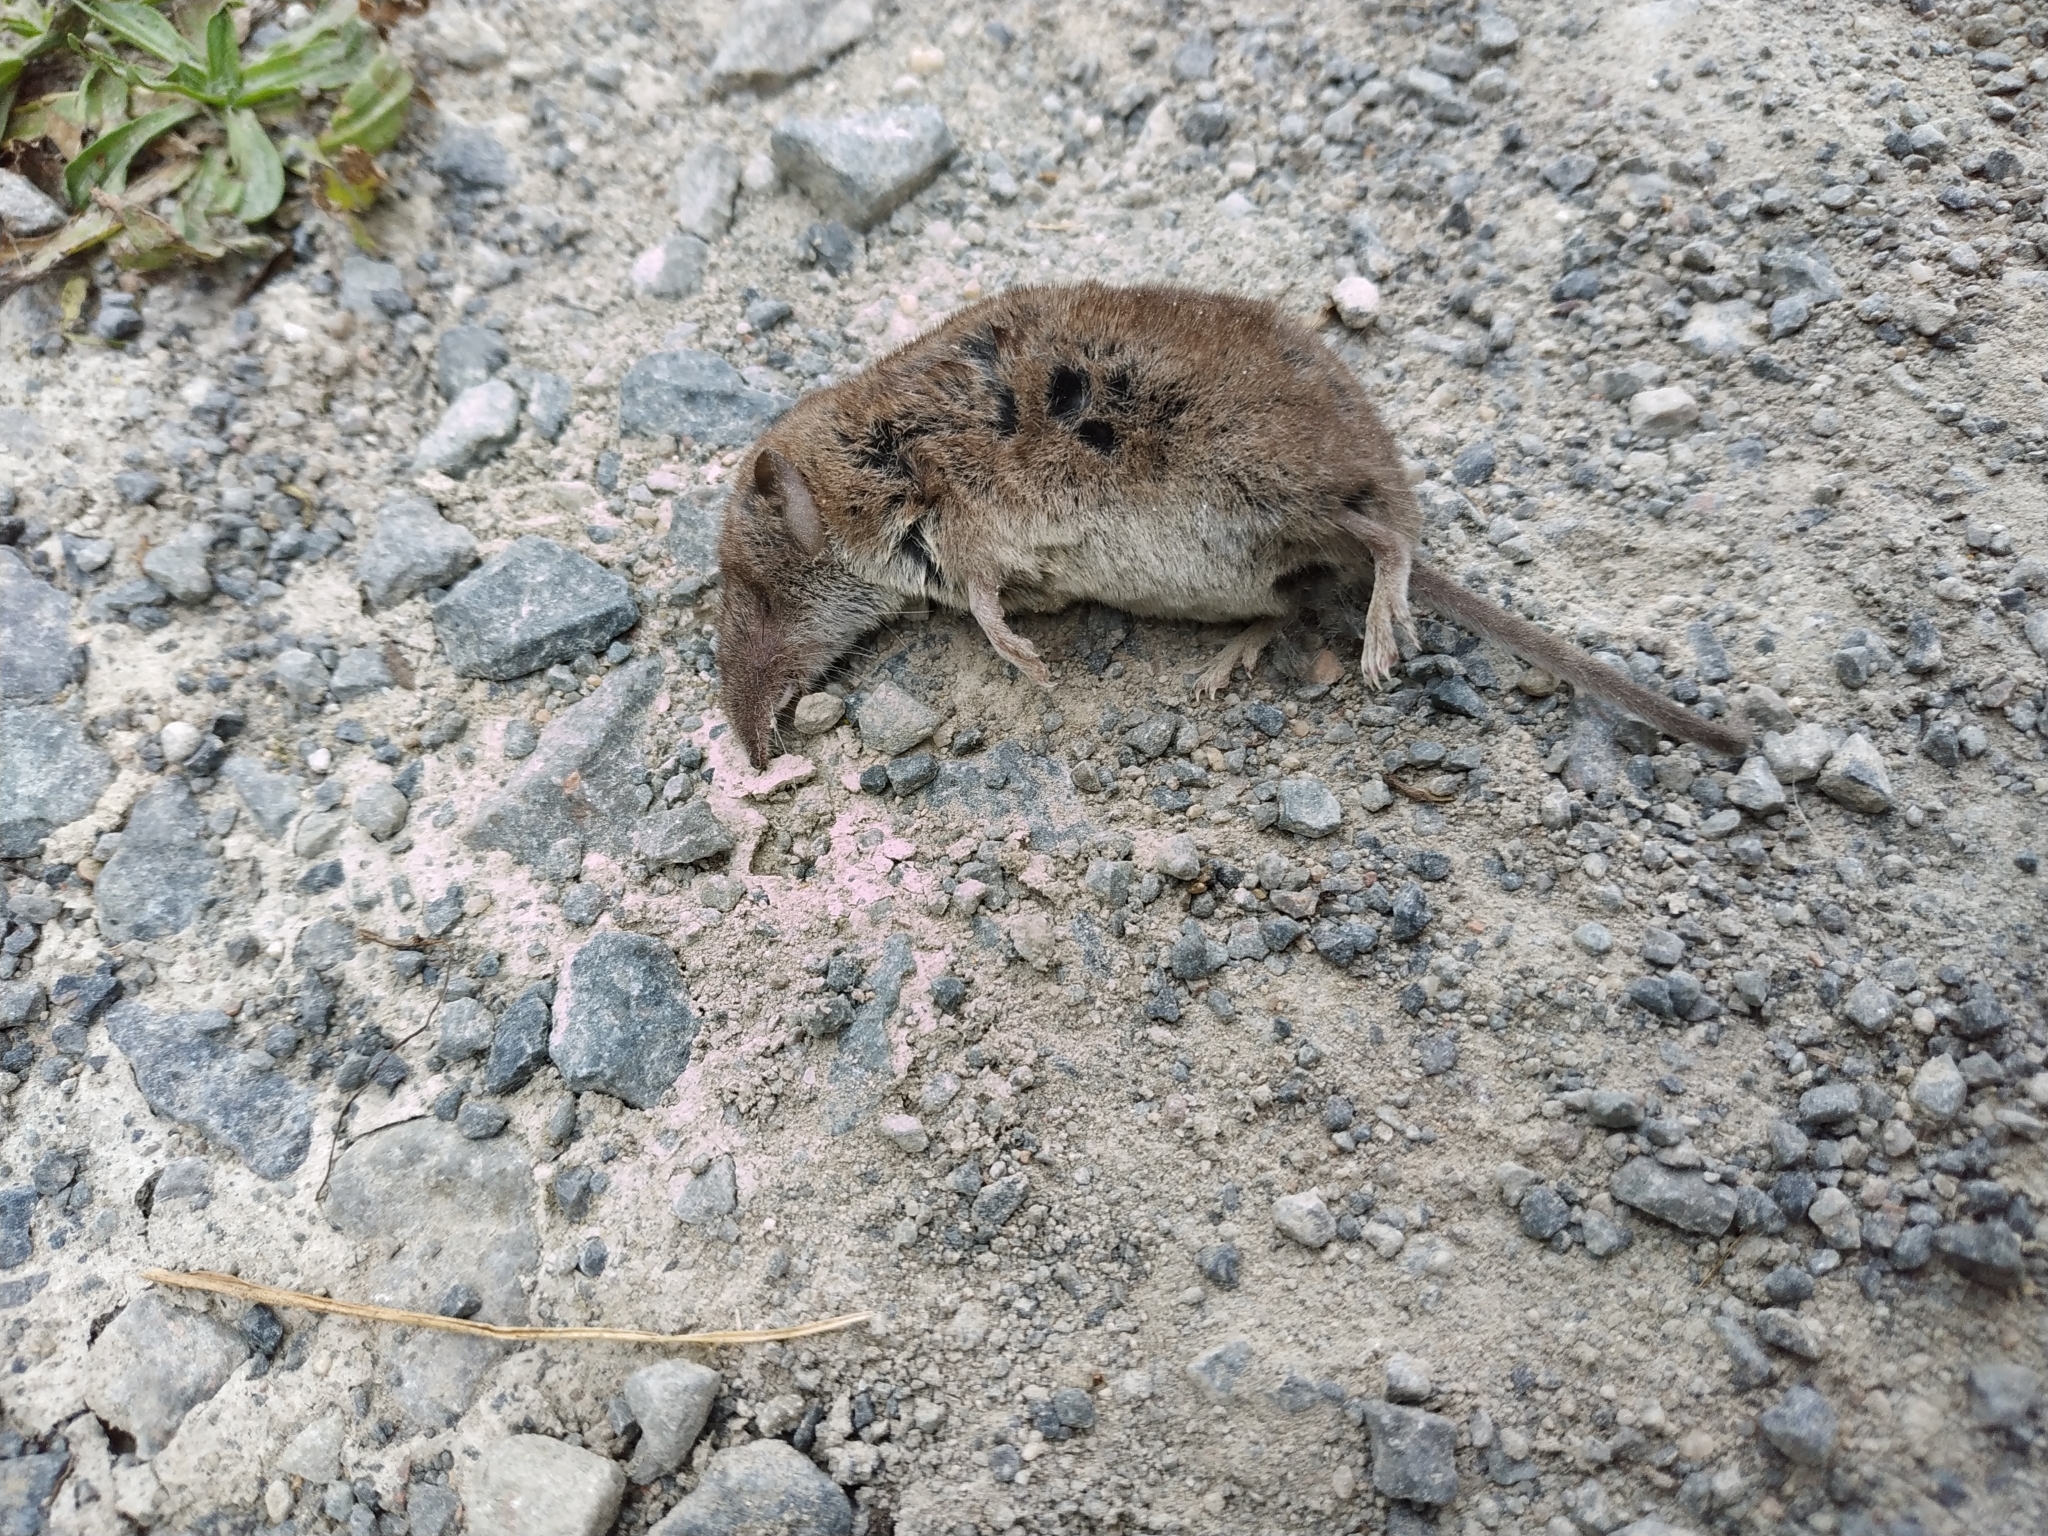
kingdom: Animalia
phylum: Chordata
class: Mammalia
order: Soricomorpha
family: Soricidae
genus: Crocidura
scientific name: Crocidura
